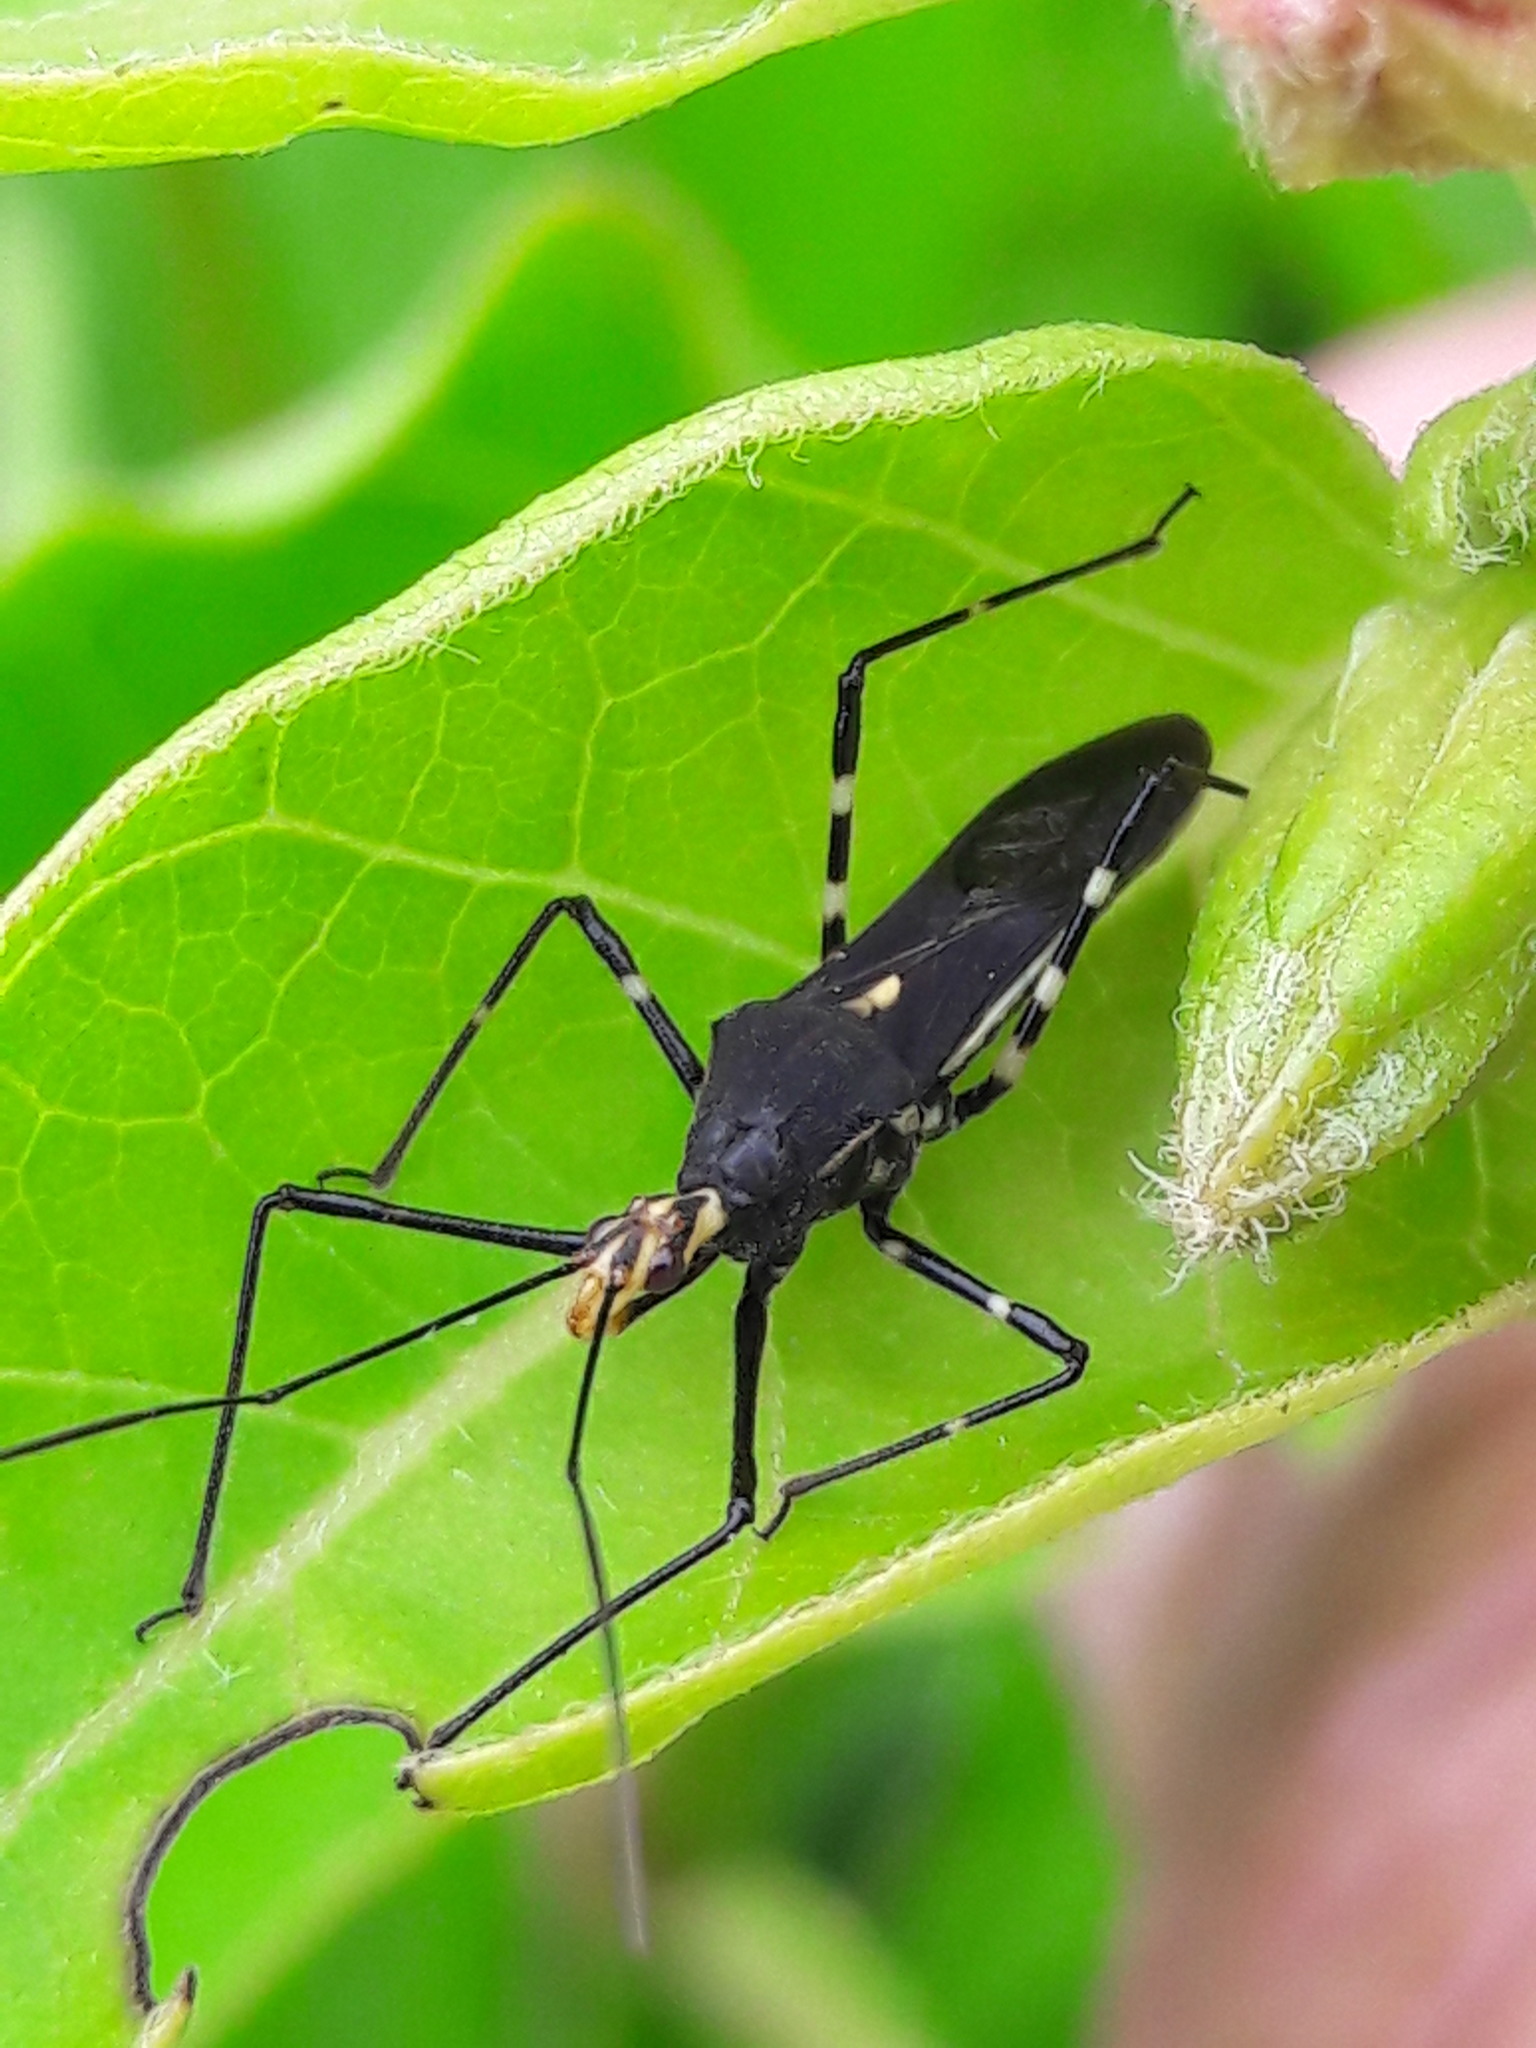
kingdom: Animalia
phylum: Arthropoda
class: Insecta
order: Hemiptera
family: Reduviidae
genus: Zelus
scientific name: Zelus laticornis
